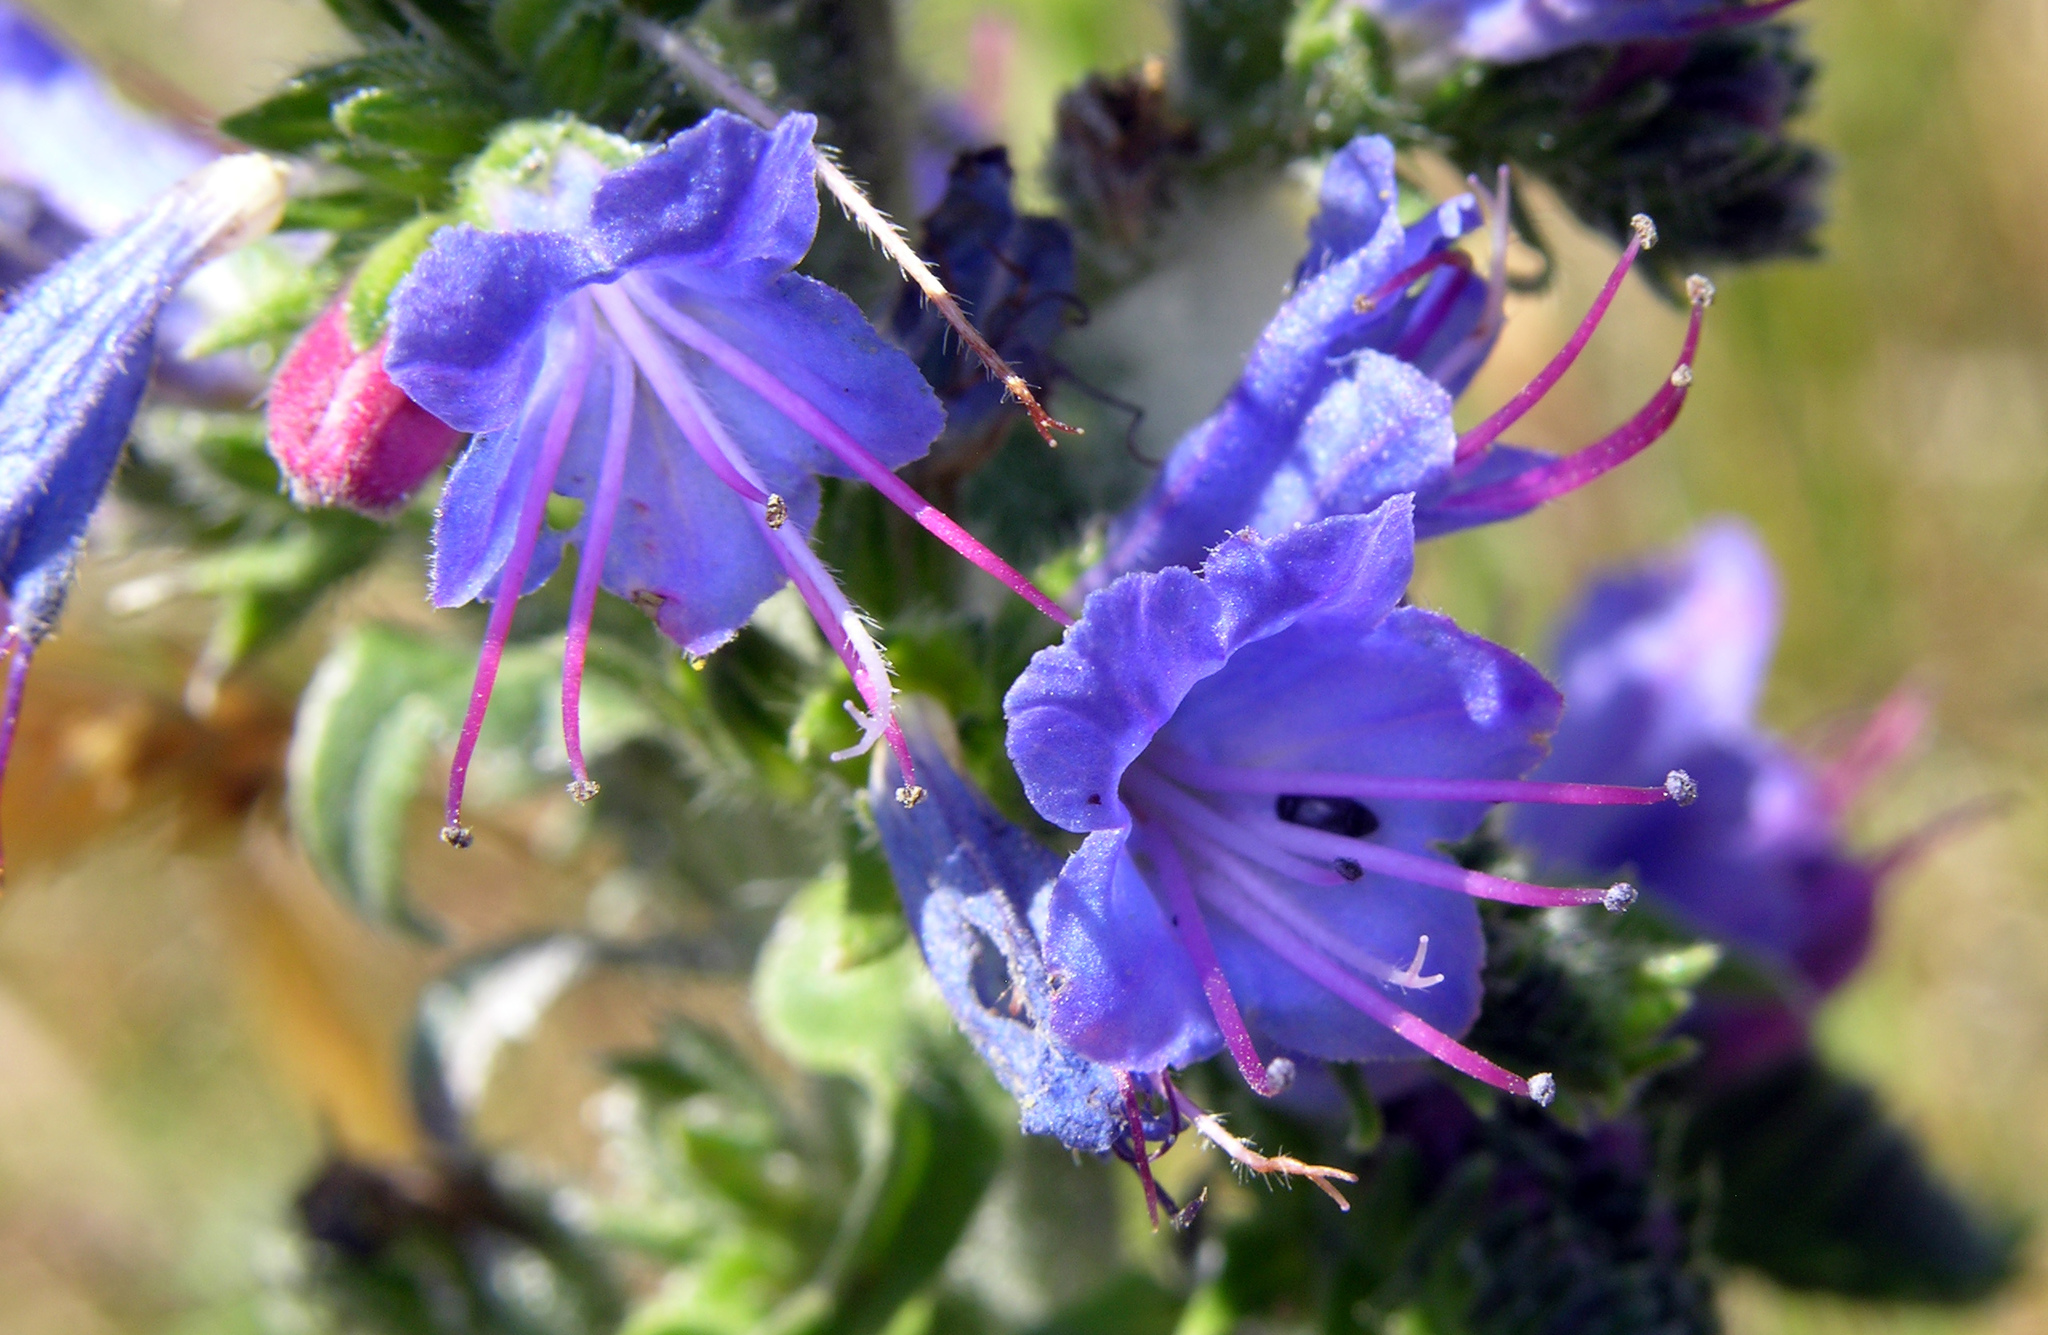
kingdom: Plantae
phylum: Tracheophyta
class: Magnoliopsida
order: Boraginales
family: Boraginaceae
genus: Echium
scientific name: Echium vulgare
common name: Common viper's bugloss
